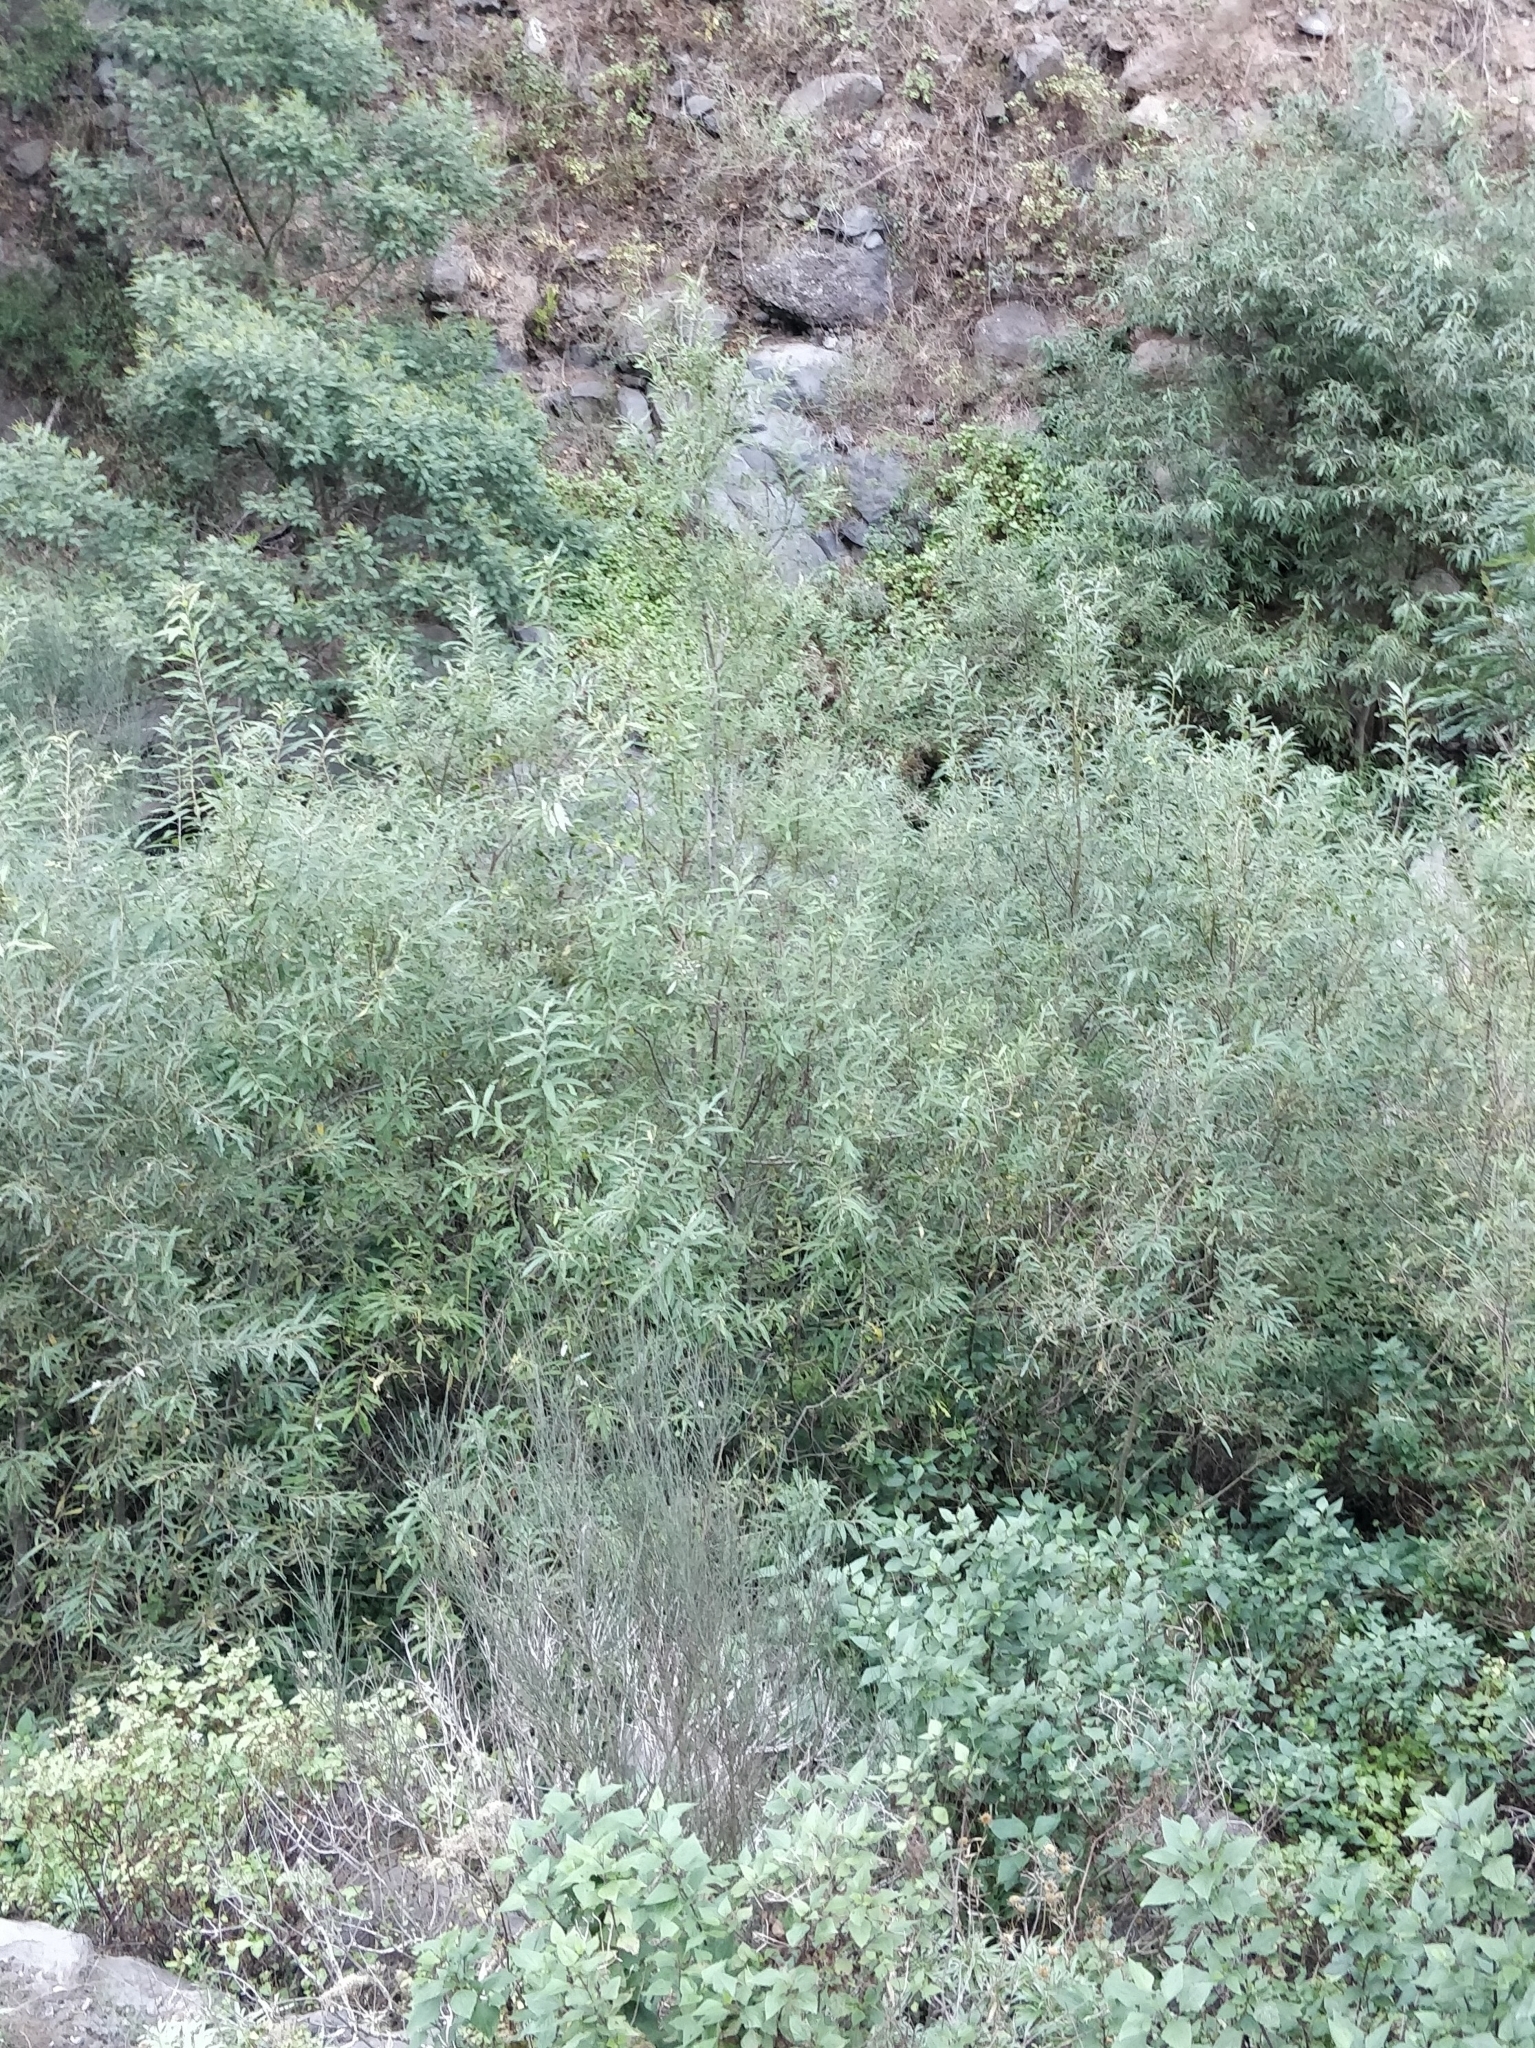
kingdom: Plantae
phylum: Tracheophyta
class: Magnoliopsida
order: Malpighiales
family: Salicaceae
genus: Salix
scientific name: Salix canariensis
